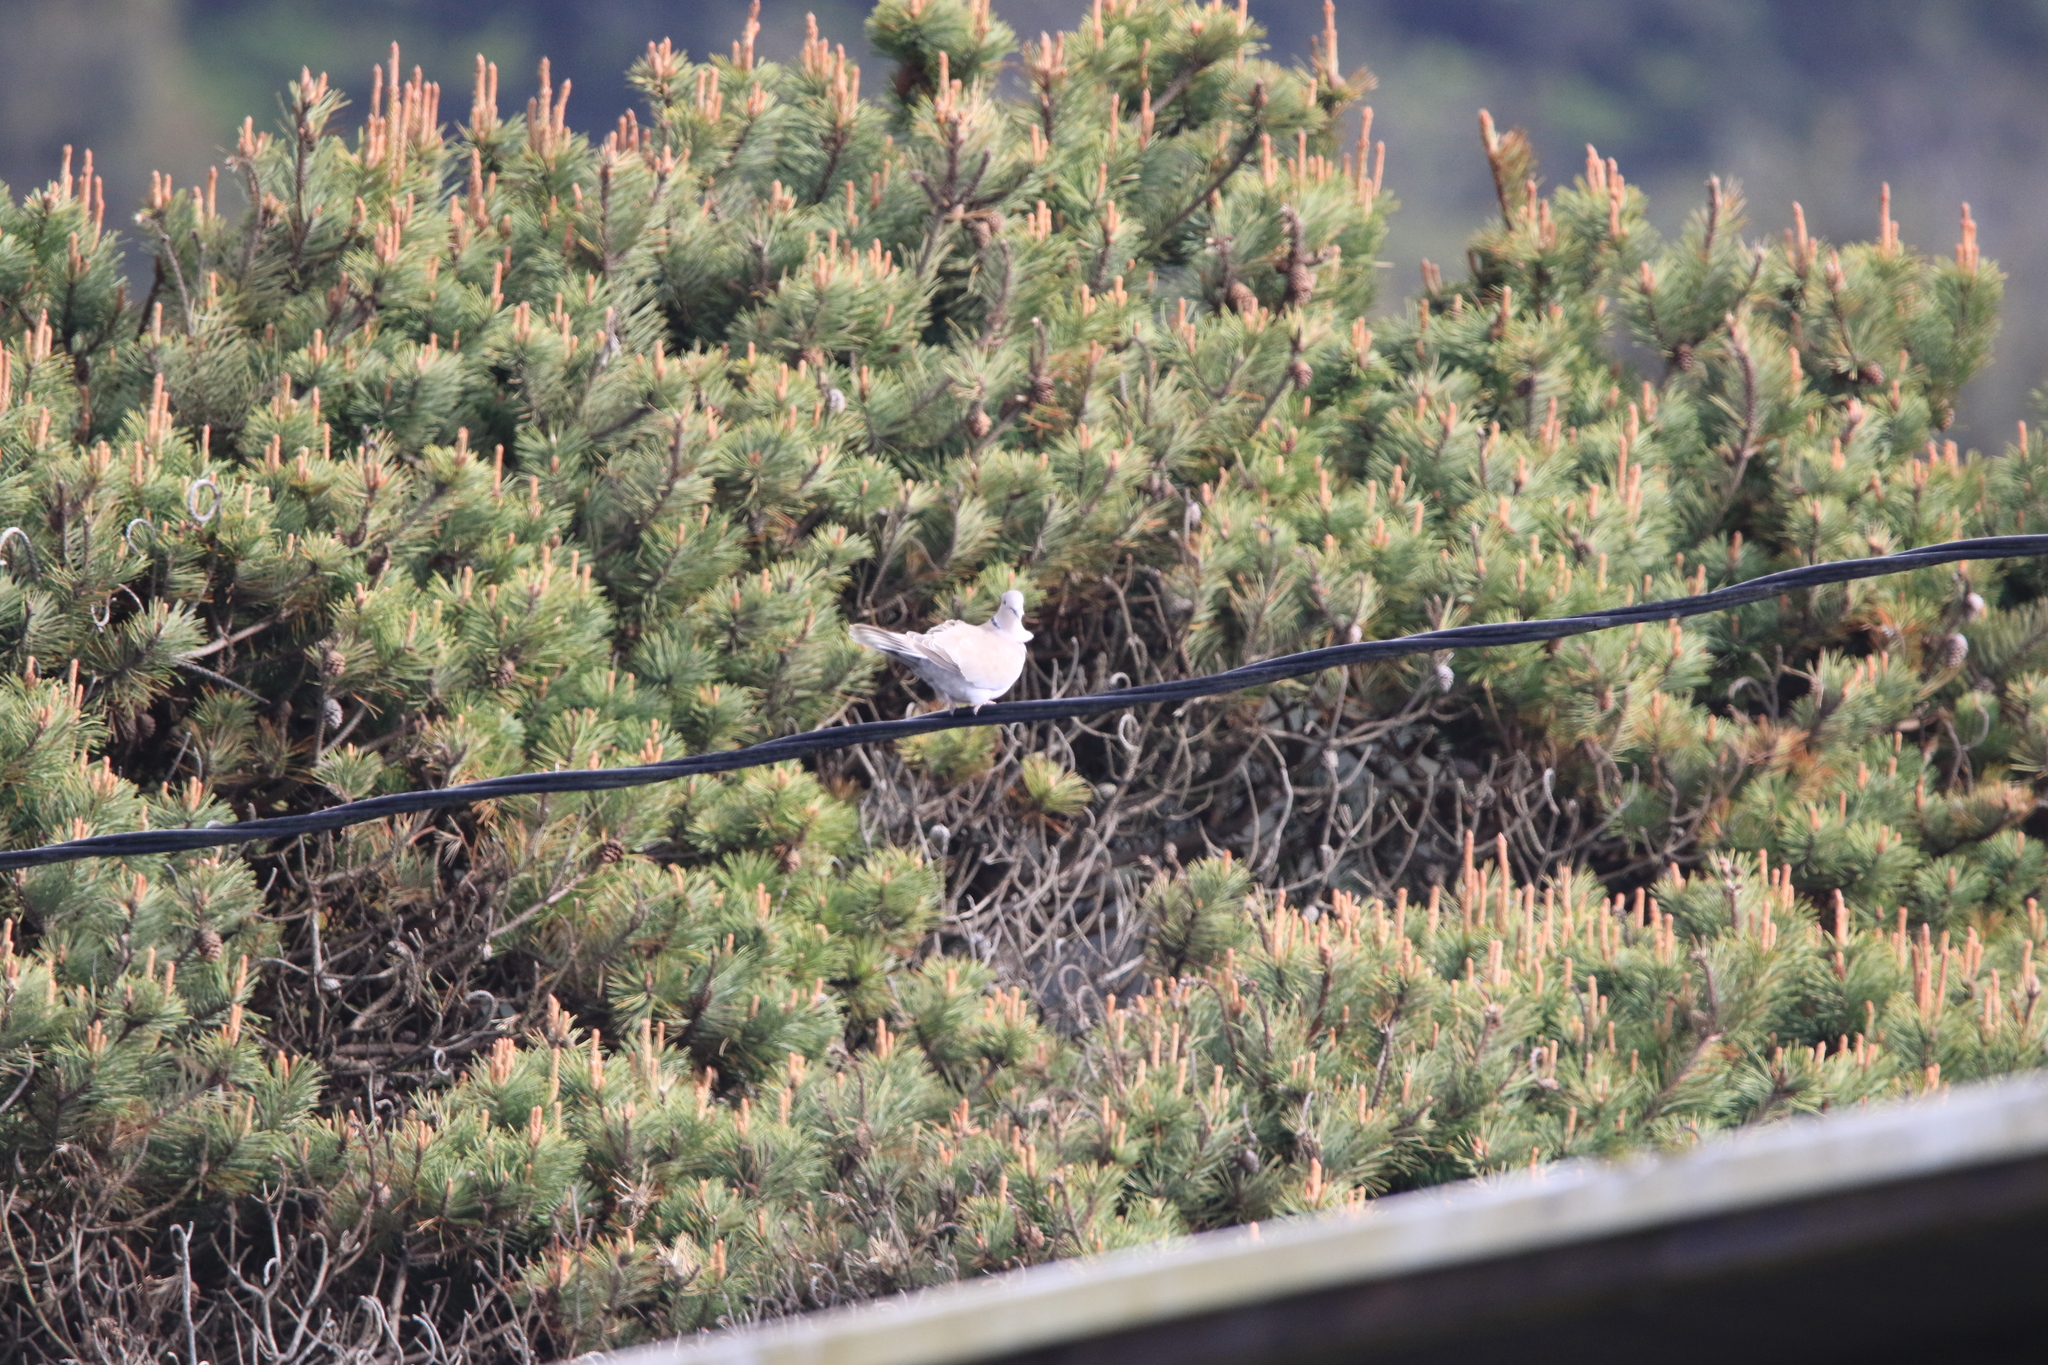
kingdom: Animalia
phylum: Chordata
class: Aves
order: Columbiformes
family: Columbidae
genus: Streptopelia
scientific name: Streptopelia decaocto
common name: Eurasian collared dove
